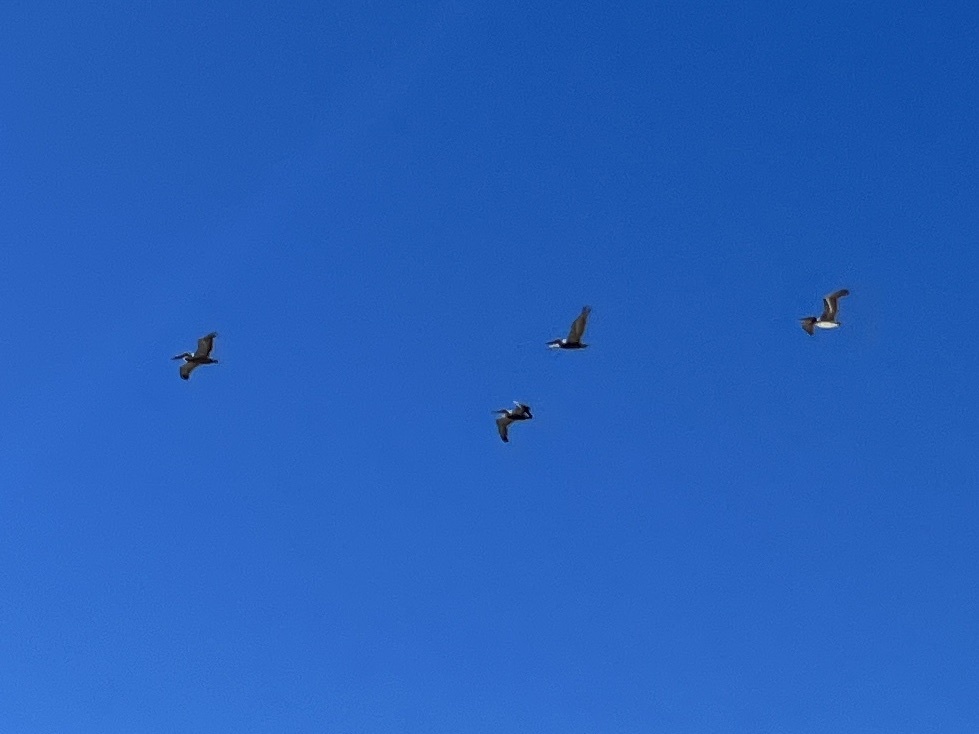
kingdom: Animalia
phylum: Chordata
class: Aves
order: Pelecaniformes
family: Pelecanidae
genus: Pelecanus
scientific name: Pelecanus occidentalis
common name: Brown pelican
